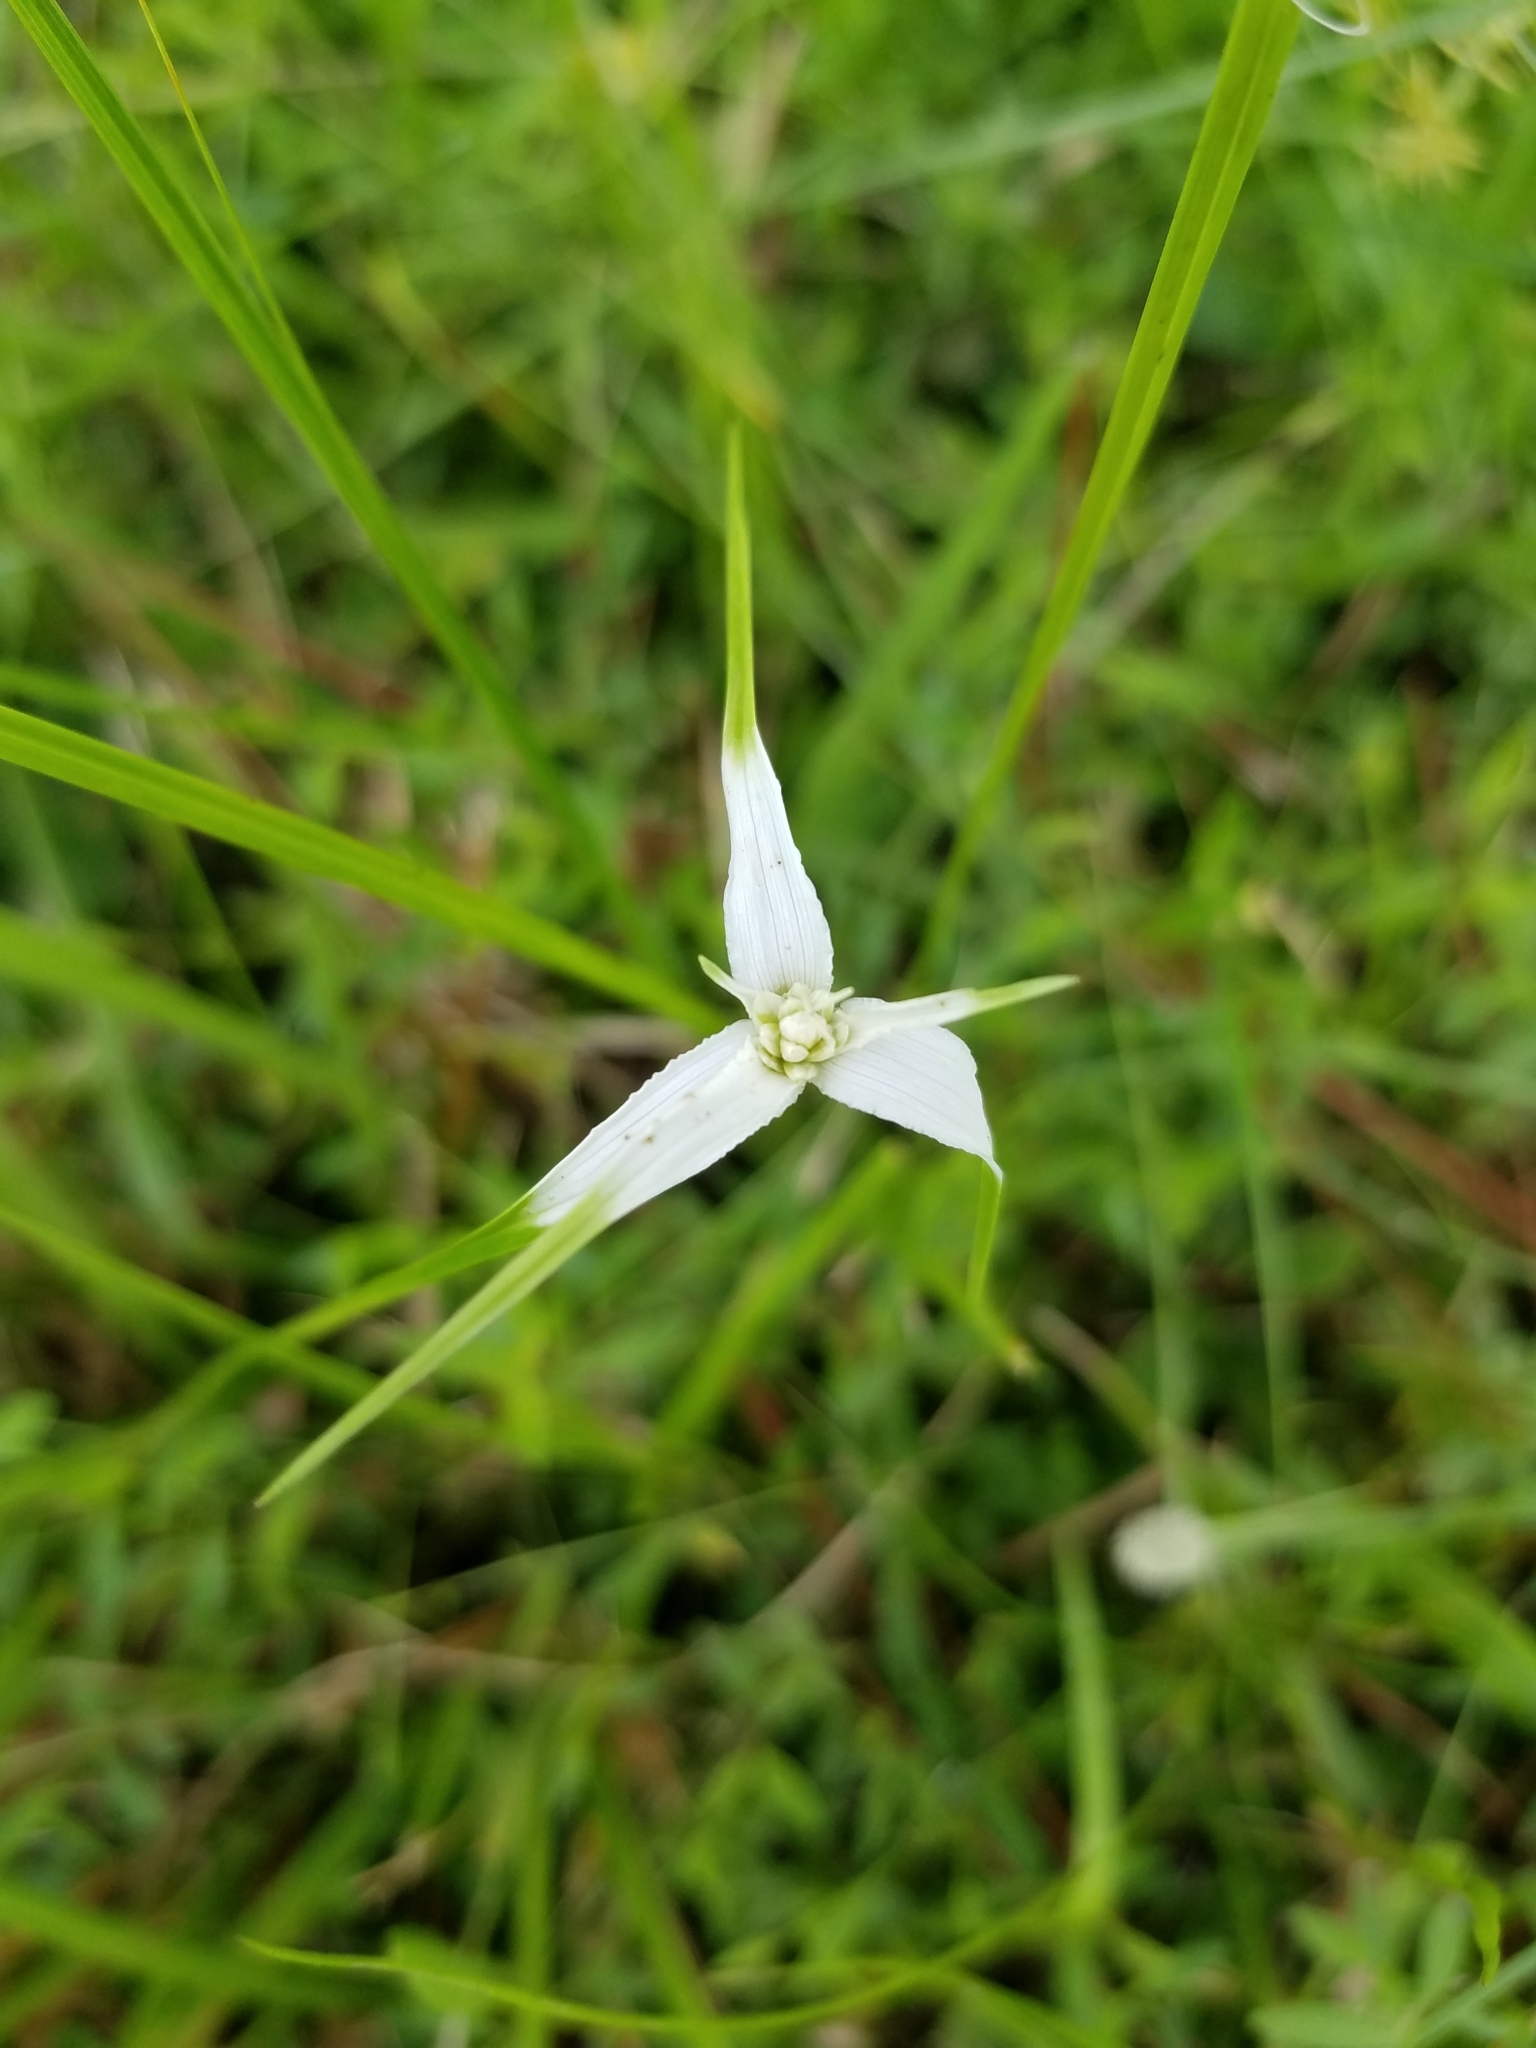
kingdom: Plantae
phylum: Tracheophyta
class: Liliopsida
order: Poales
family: Cyperaceae
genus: Rhynchospora
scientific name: Rhynchospora colorata
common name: Star sedge
